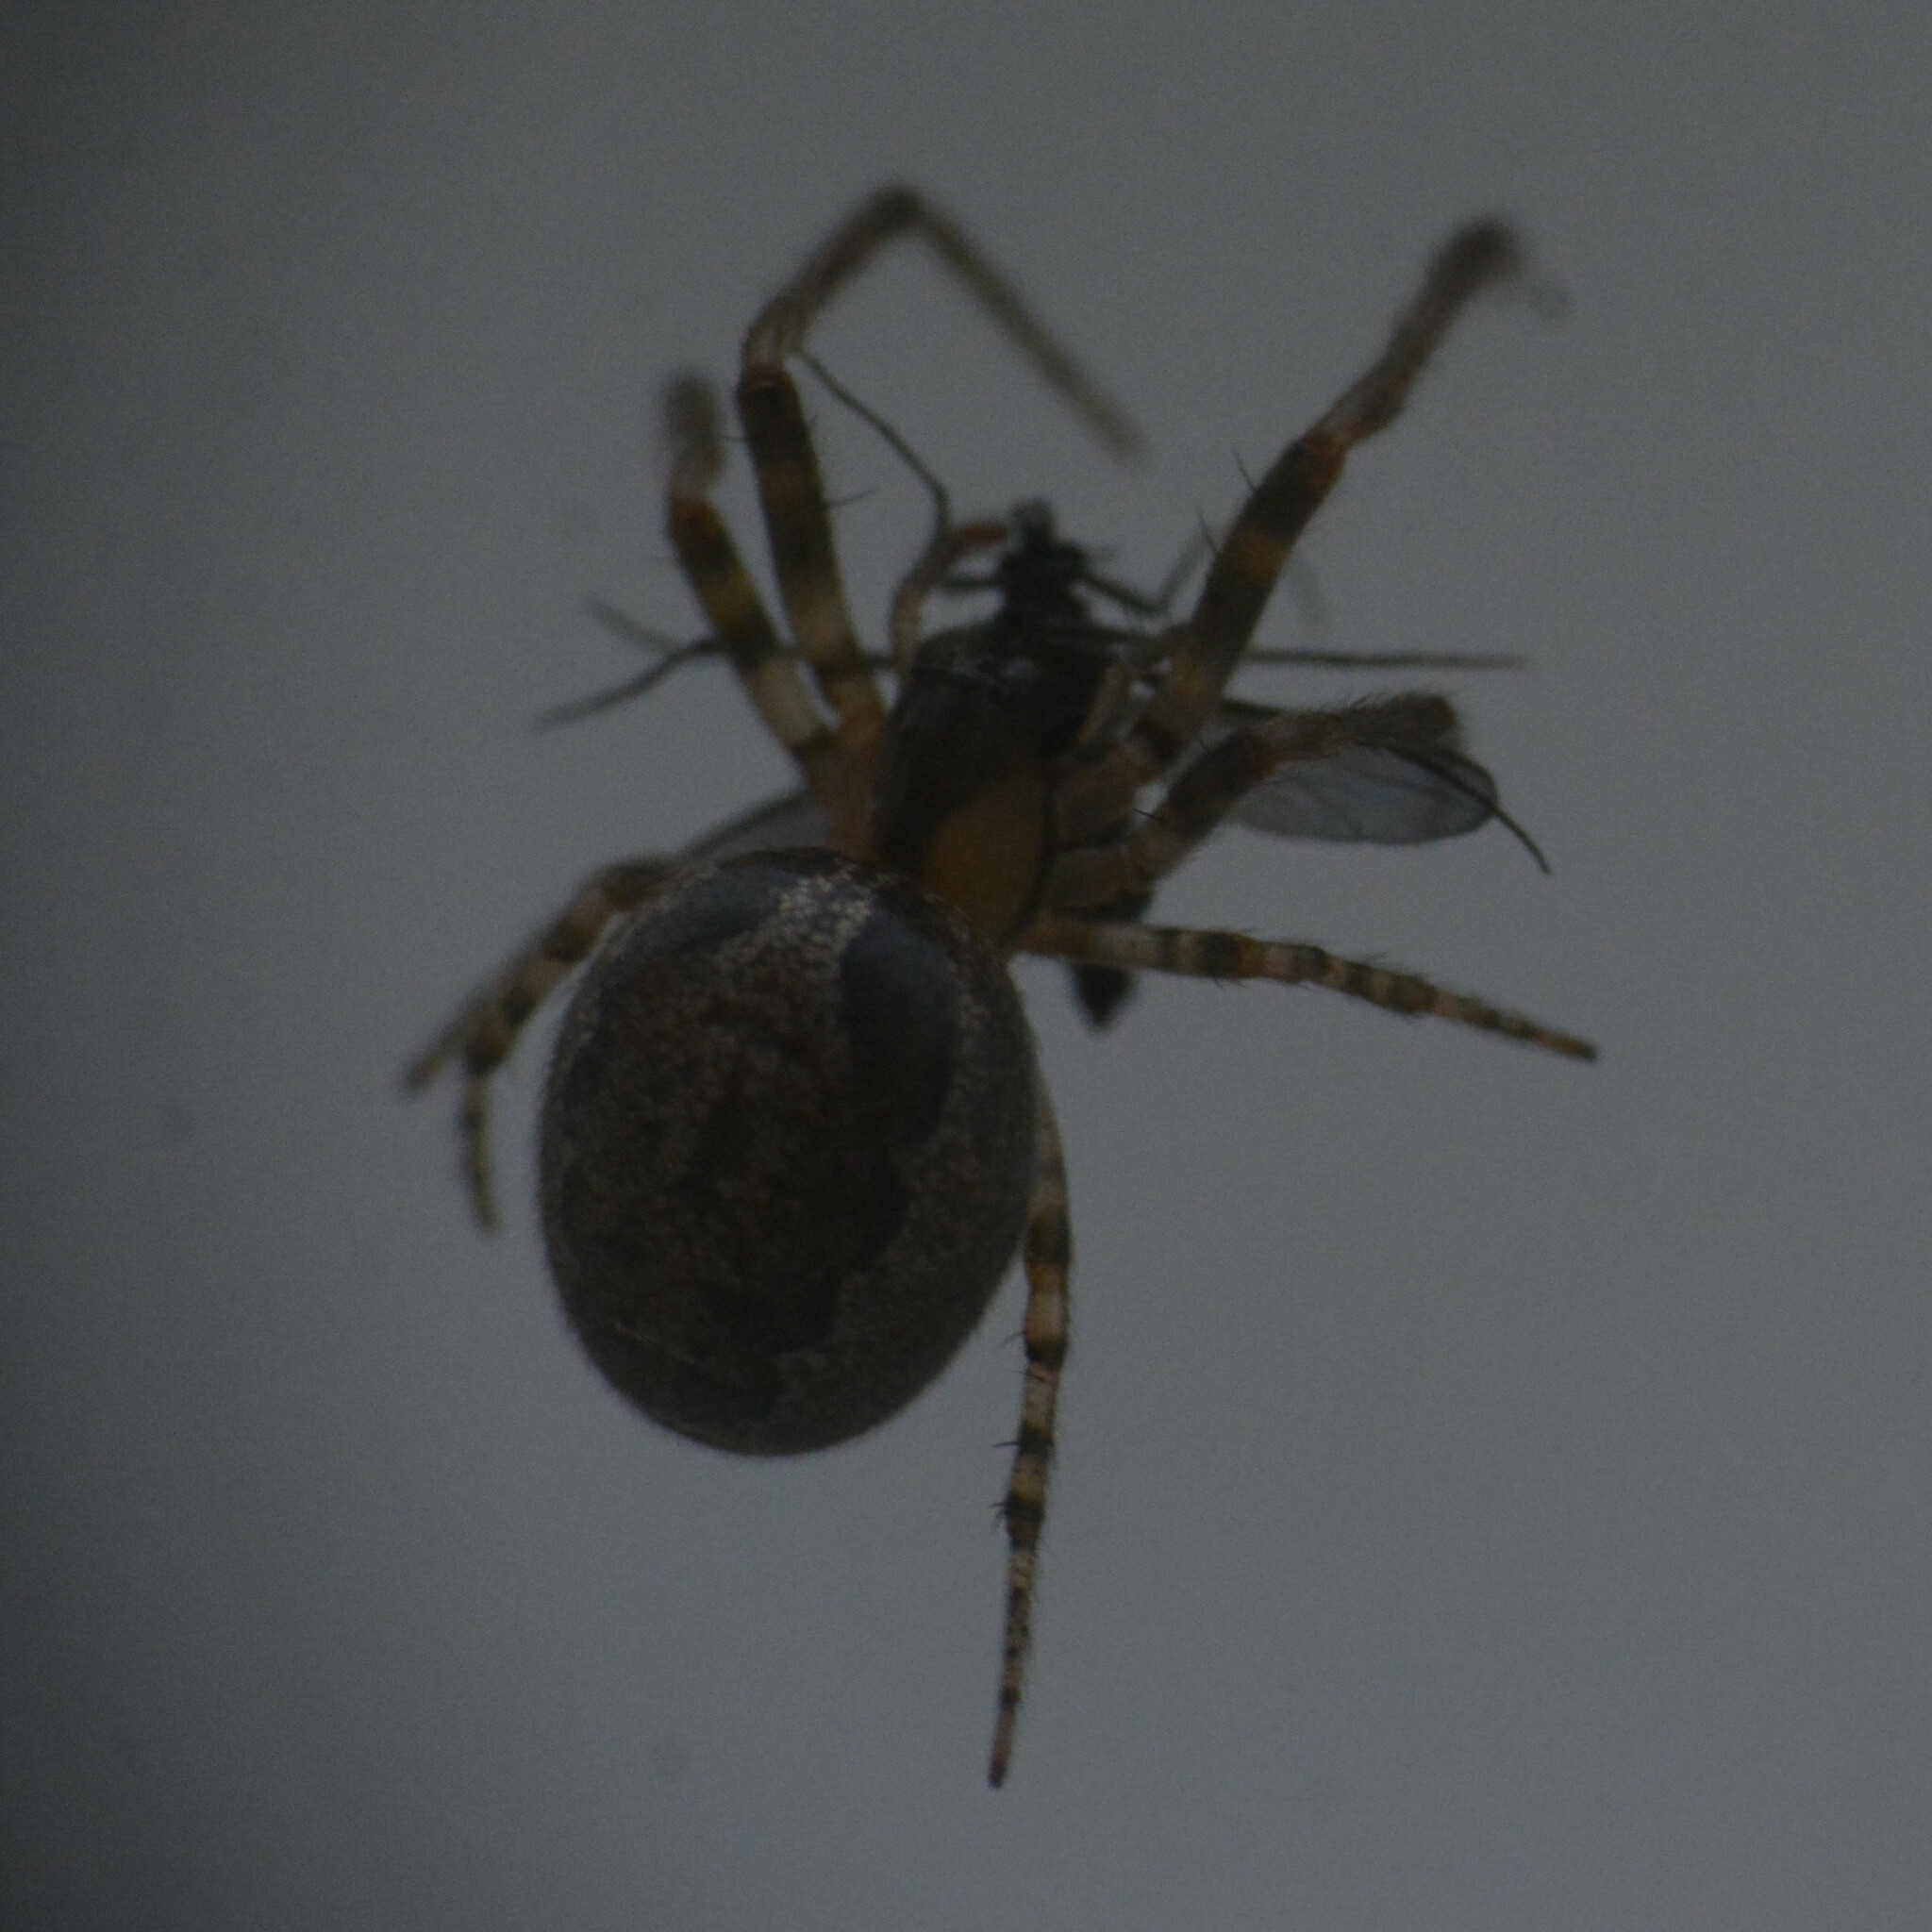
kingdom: Animalia
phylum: Arthropoda
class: Arachnida
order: Araneae
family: Araneidae
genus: Zygiella
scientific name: Zygiella x-notata
